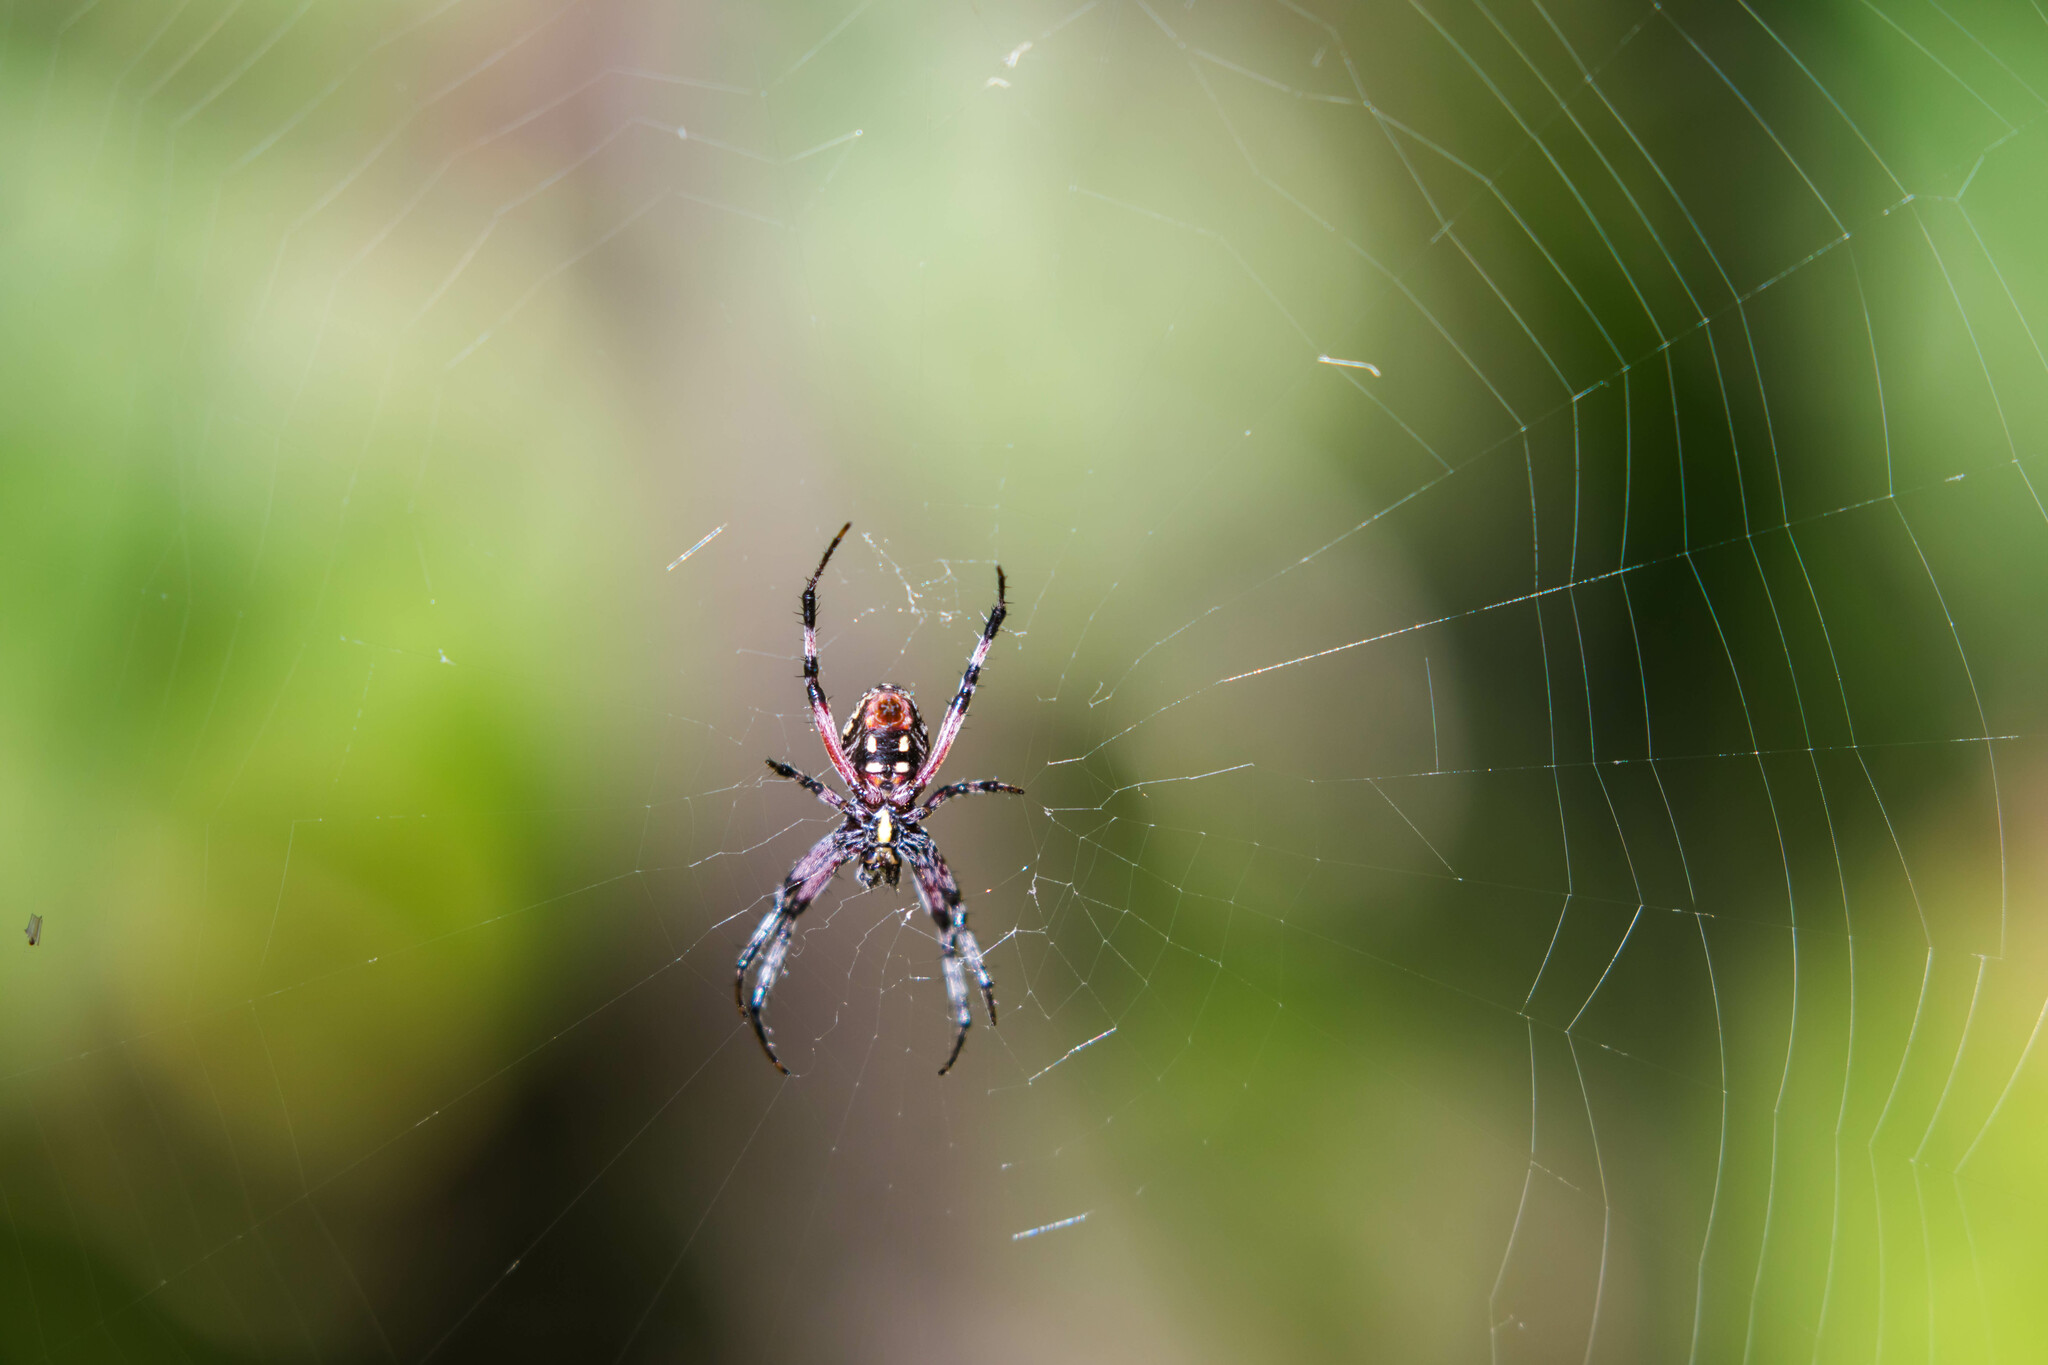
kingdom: Animalia
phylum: Arthropoda
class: Arachnida
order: Araneae
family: Araneidae
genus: Neoscona
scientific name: Neoscona oaxacensis
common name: Orb weavers
